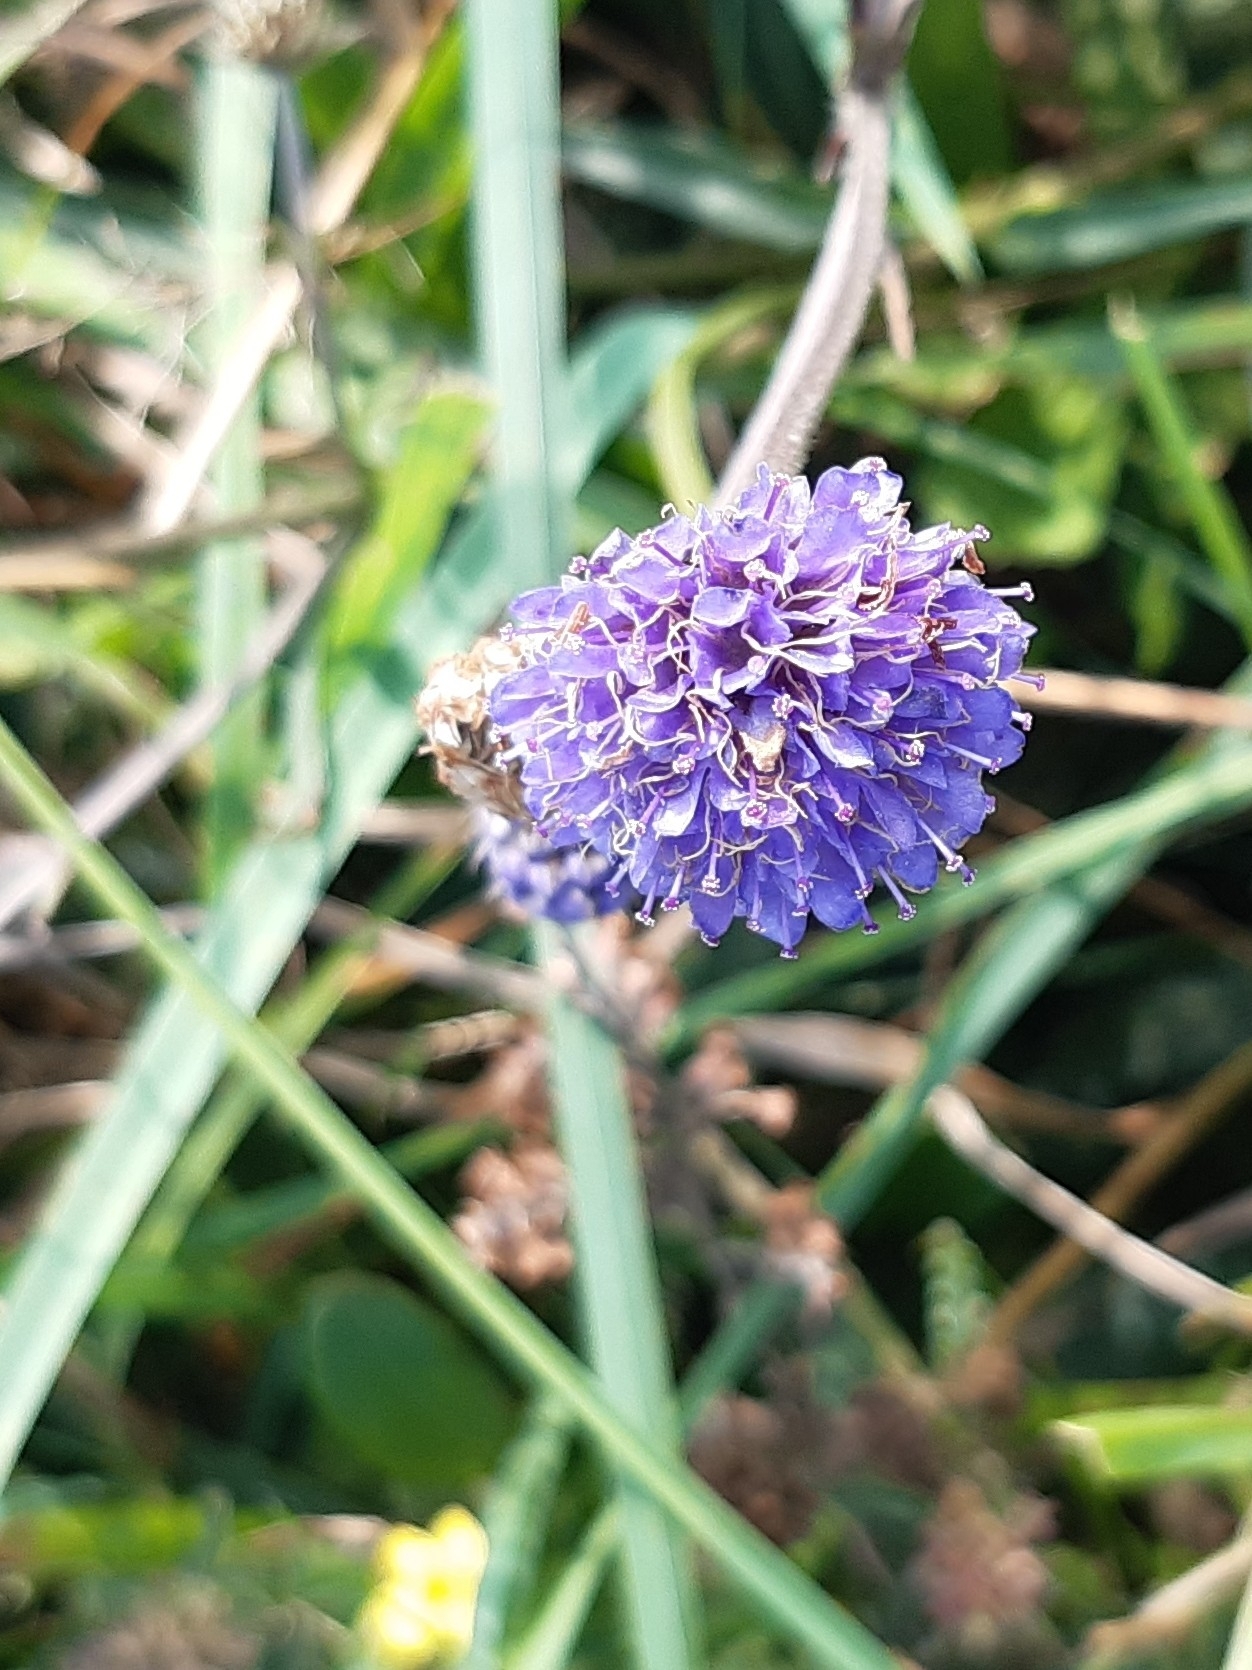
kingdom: Plantae
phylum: Tracheophyta
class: Magnoliopsida
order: Dipsacales
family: Caprifoliaceae
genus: Succisa
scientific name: Succisa pratensis
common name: Devil's-bit
